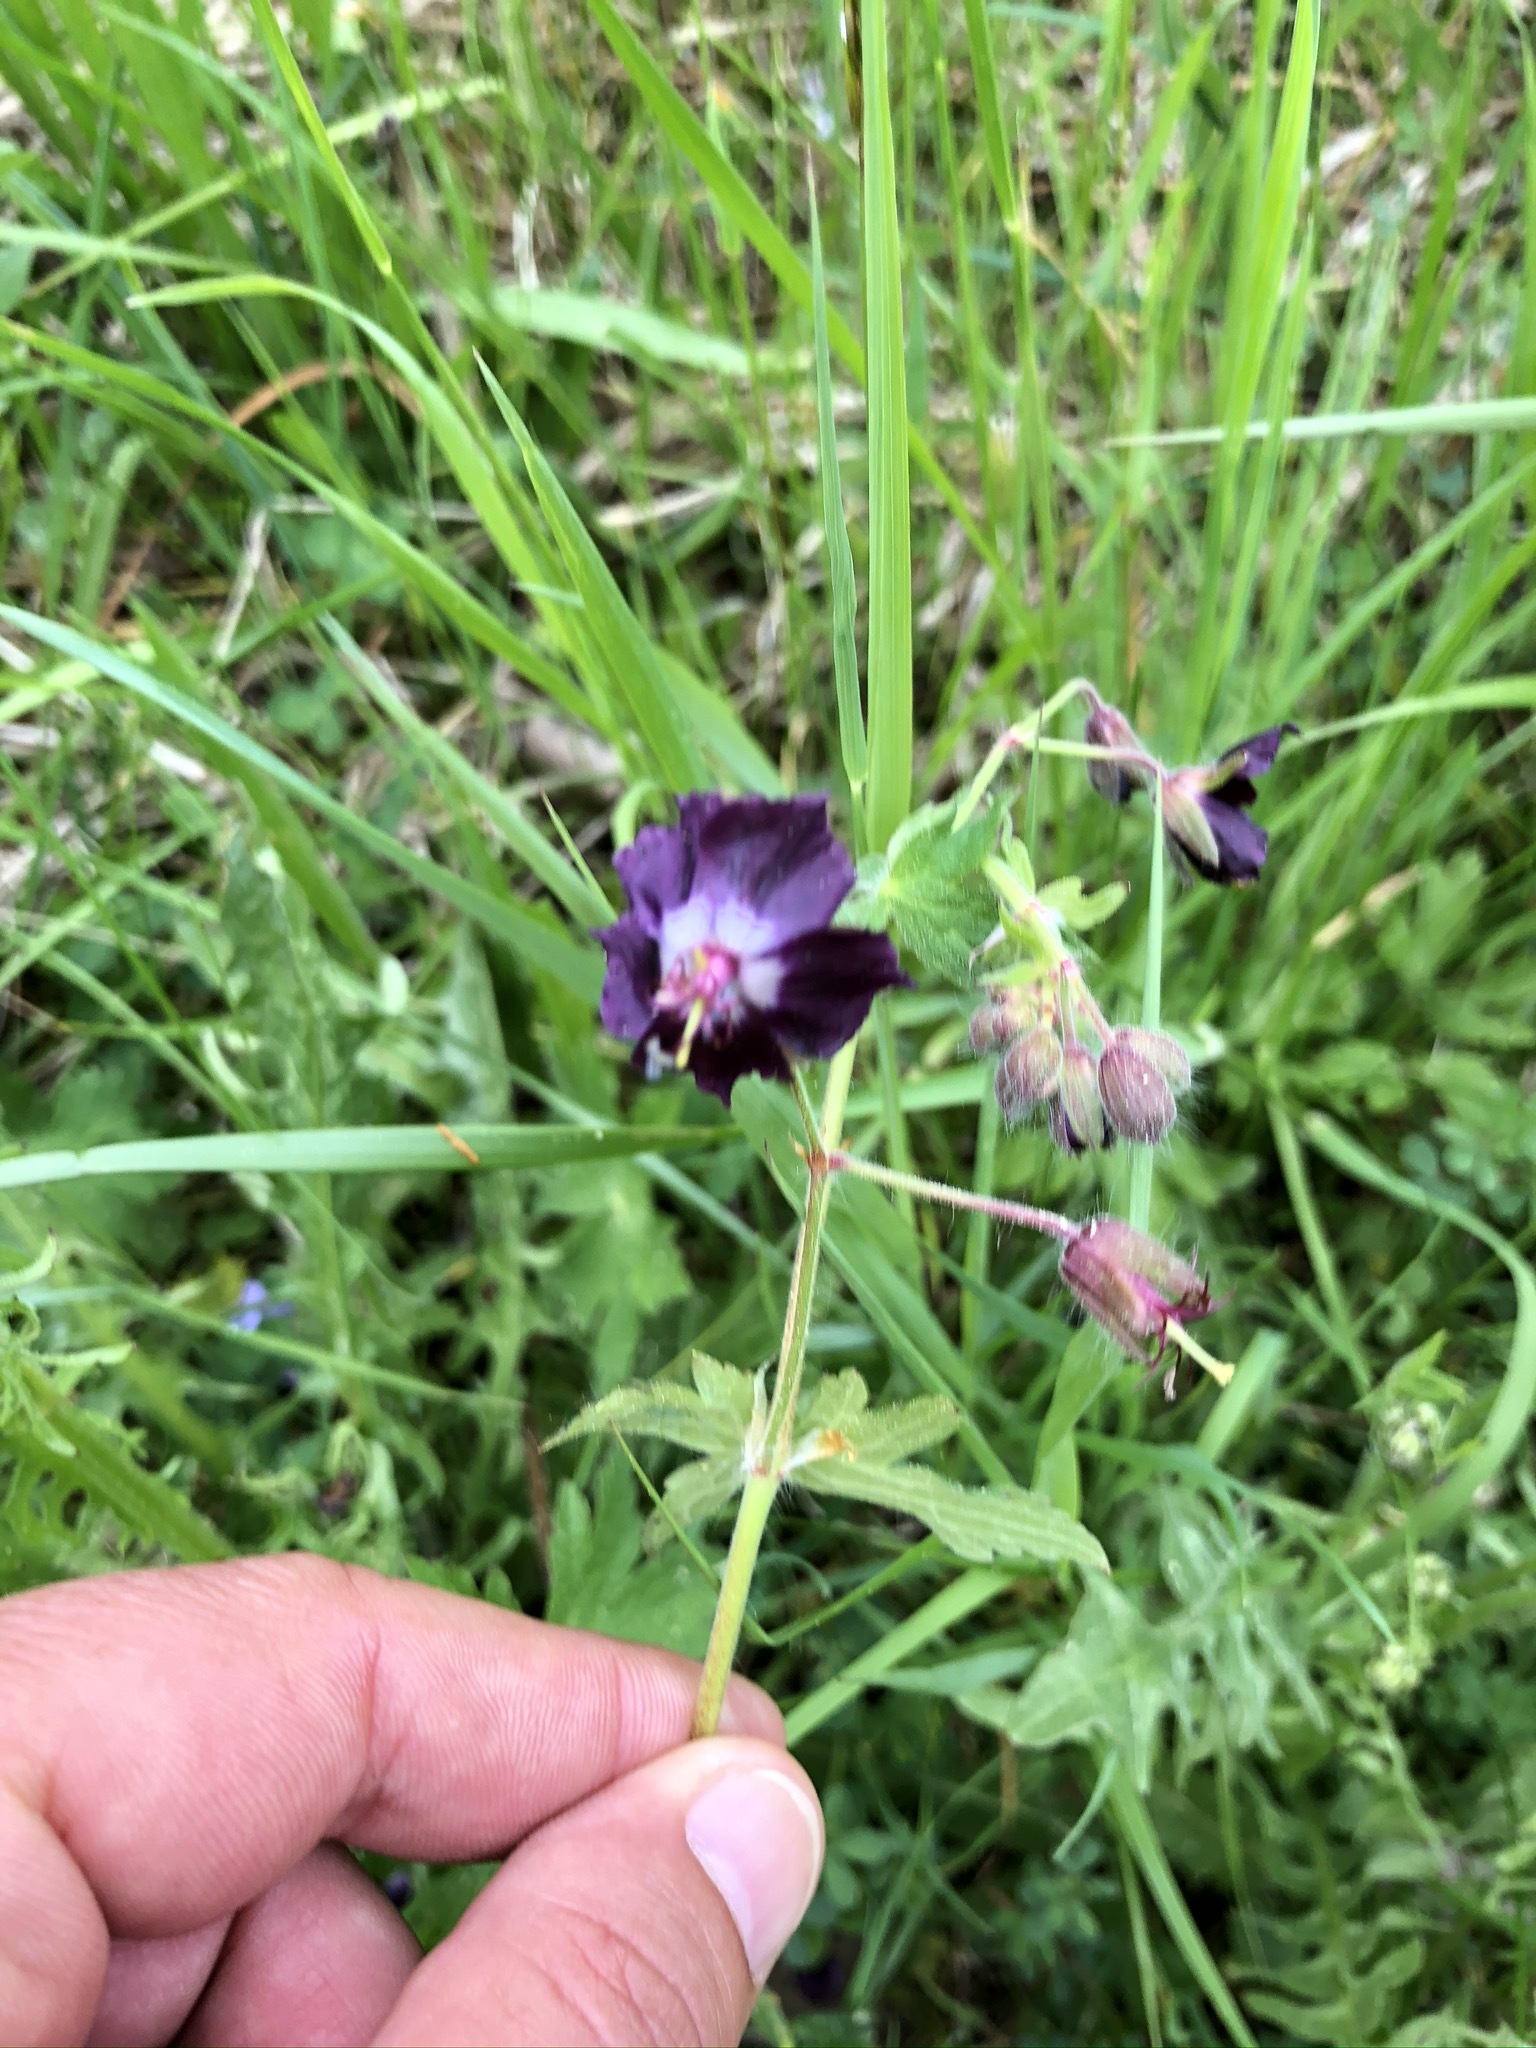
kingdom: Plantae
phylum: Tracheophyta
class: Magnoliopsida
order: Geraniales
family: Geraniaceae
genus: Geranium
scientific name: Geranium phaeum
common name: Dusky crane's-bill
